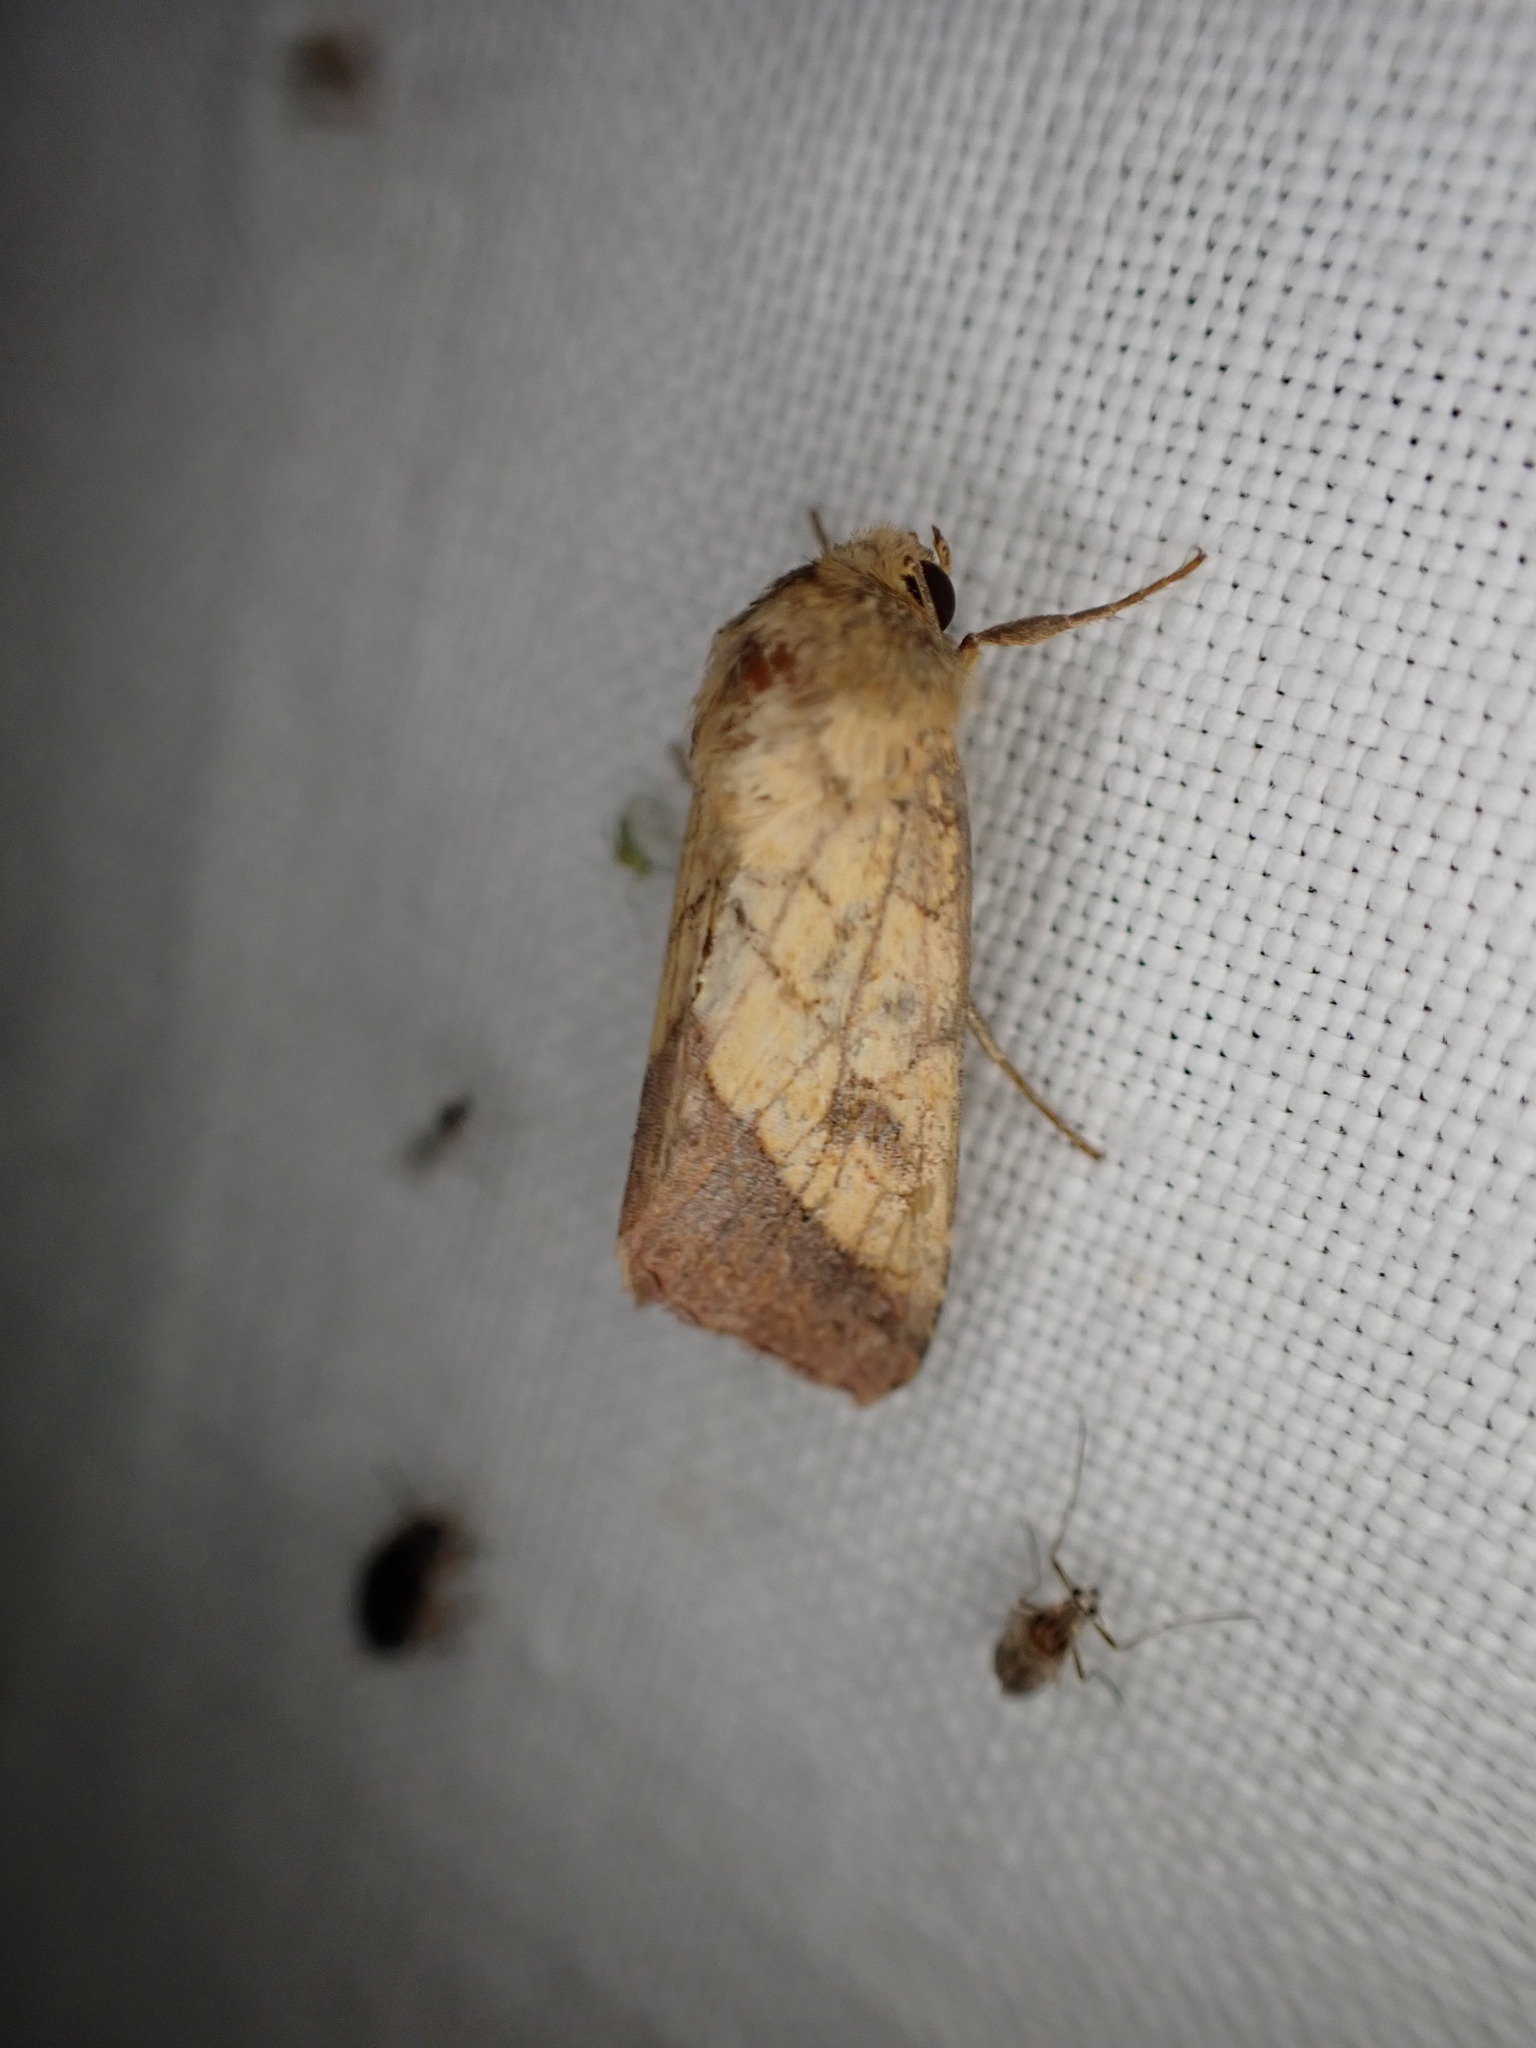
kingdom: Animalia
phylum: Arthropoda
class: Insecta
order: Lepidoptera
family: Noctuidae
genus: Pyrrhia
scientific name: Pyrrhia umbra
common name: Bordered sallow
